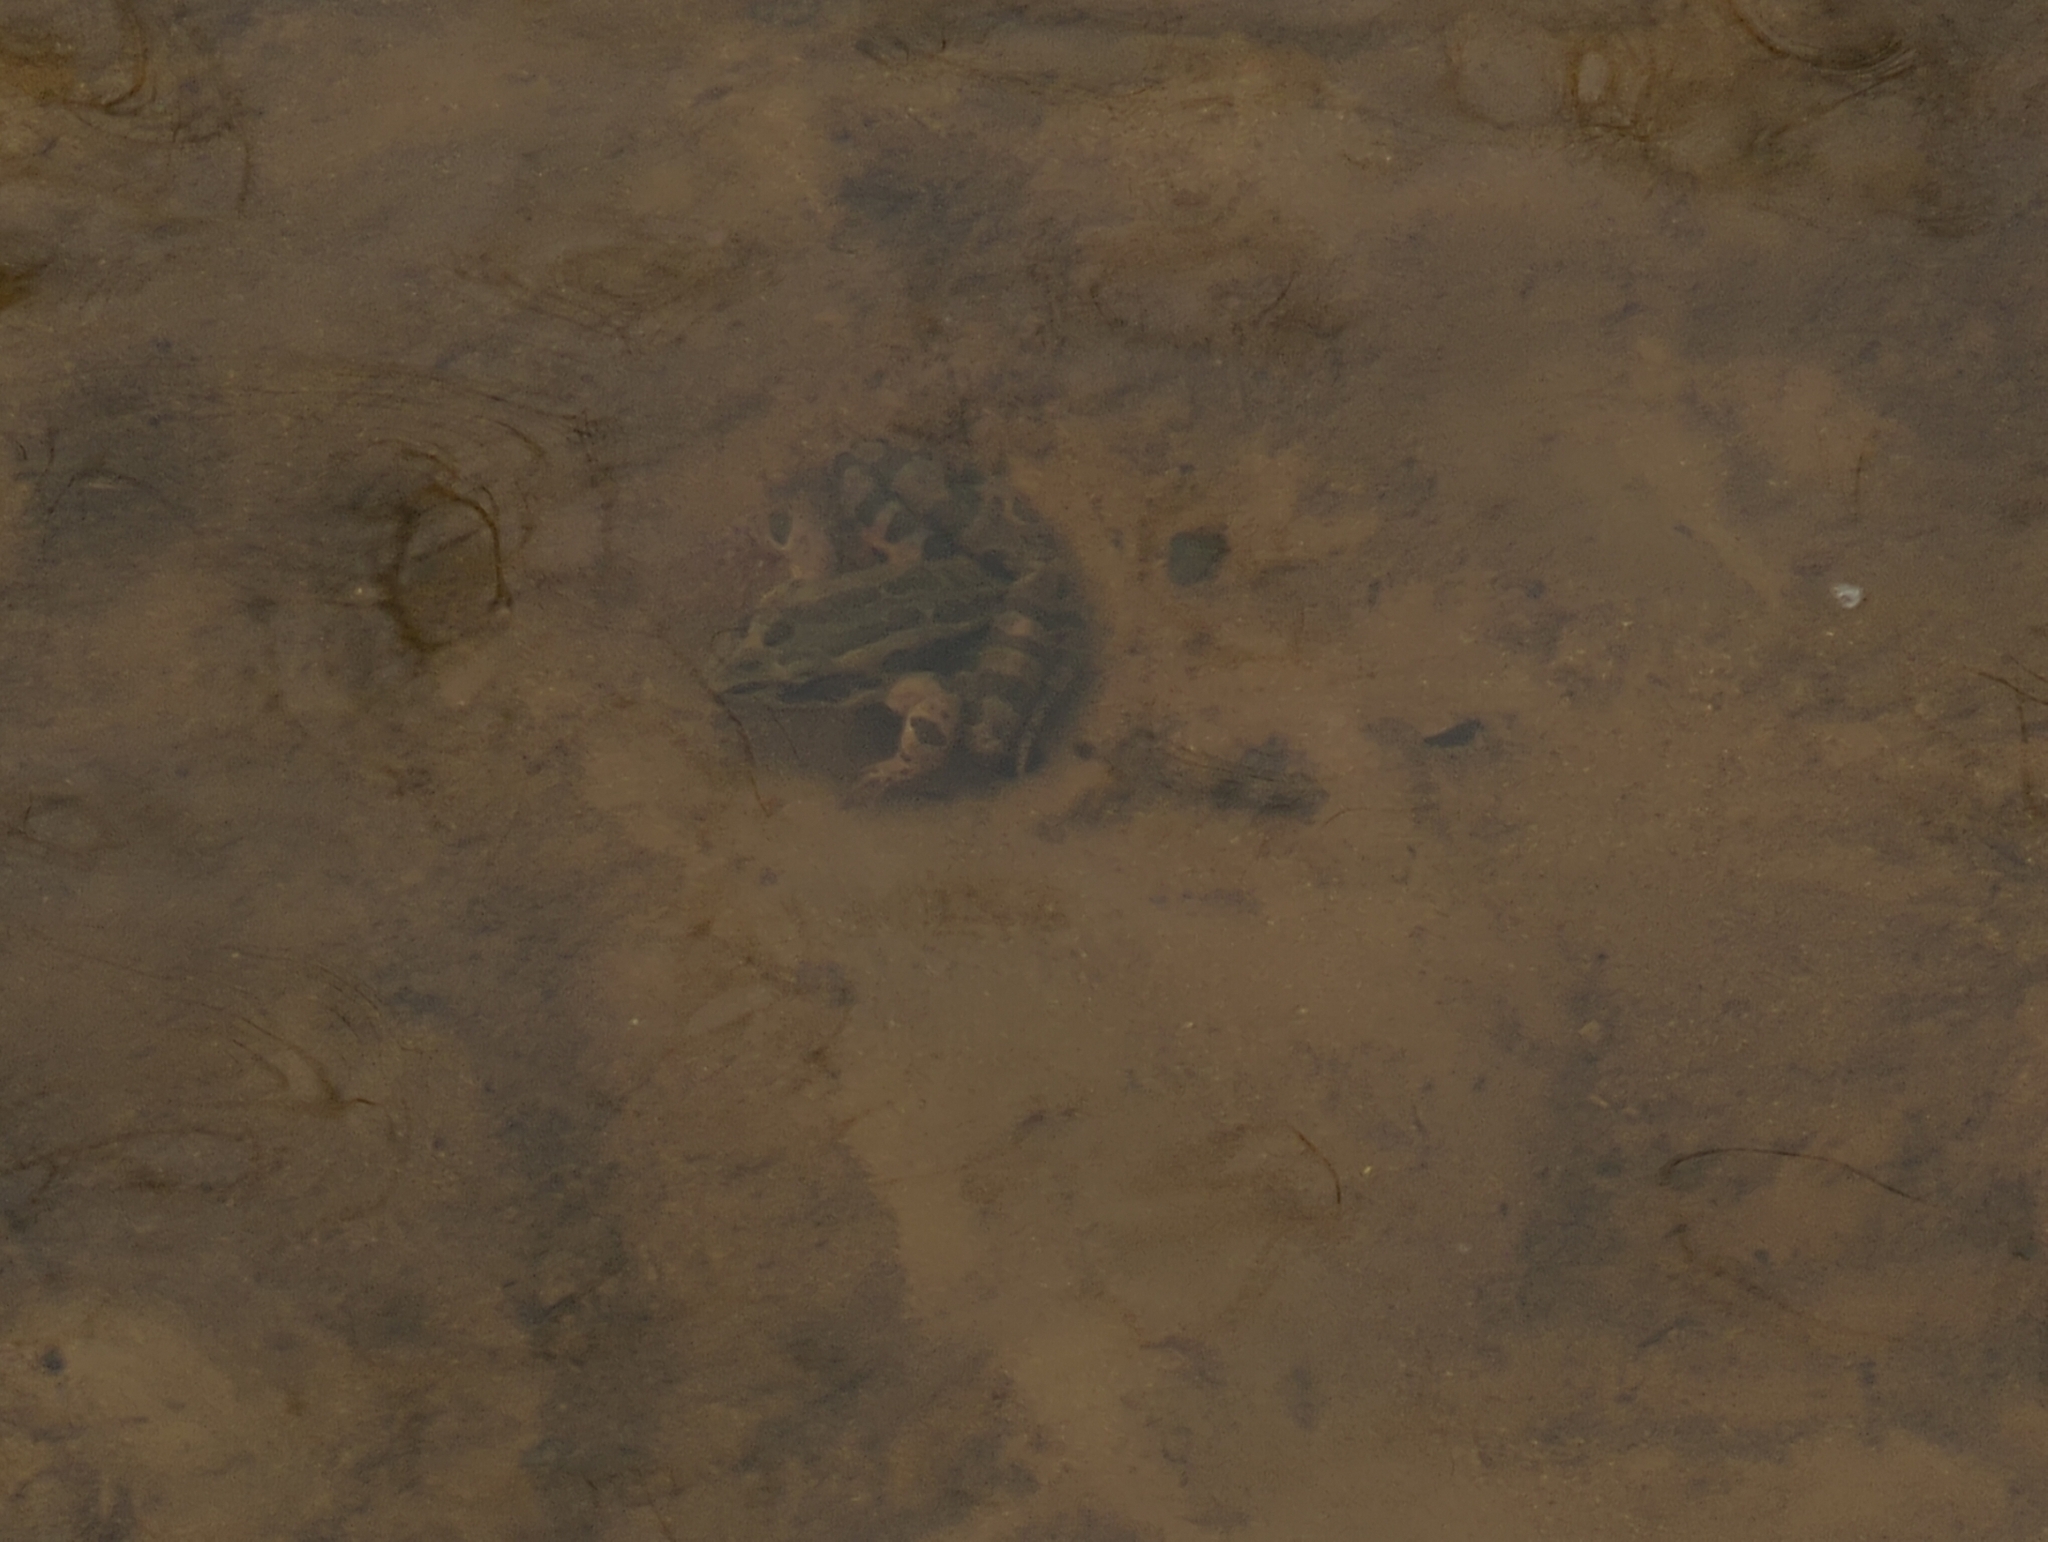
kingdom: Animalia
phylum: Chordata
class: Amphibia
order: Anura
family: Ranidae
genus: Lithobates
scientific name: Lithobates palustris
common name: Pickerel frog
